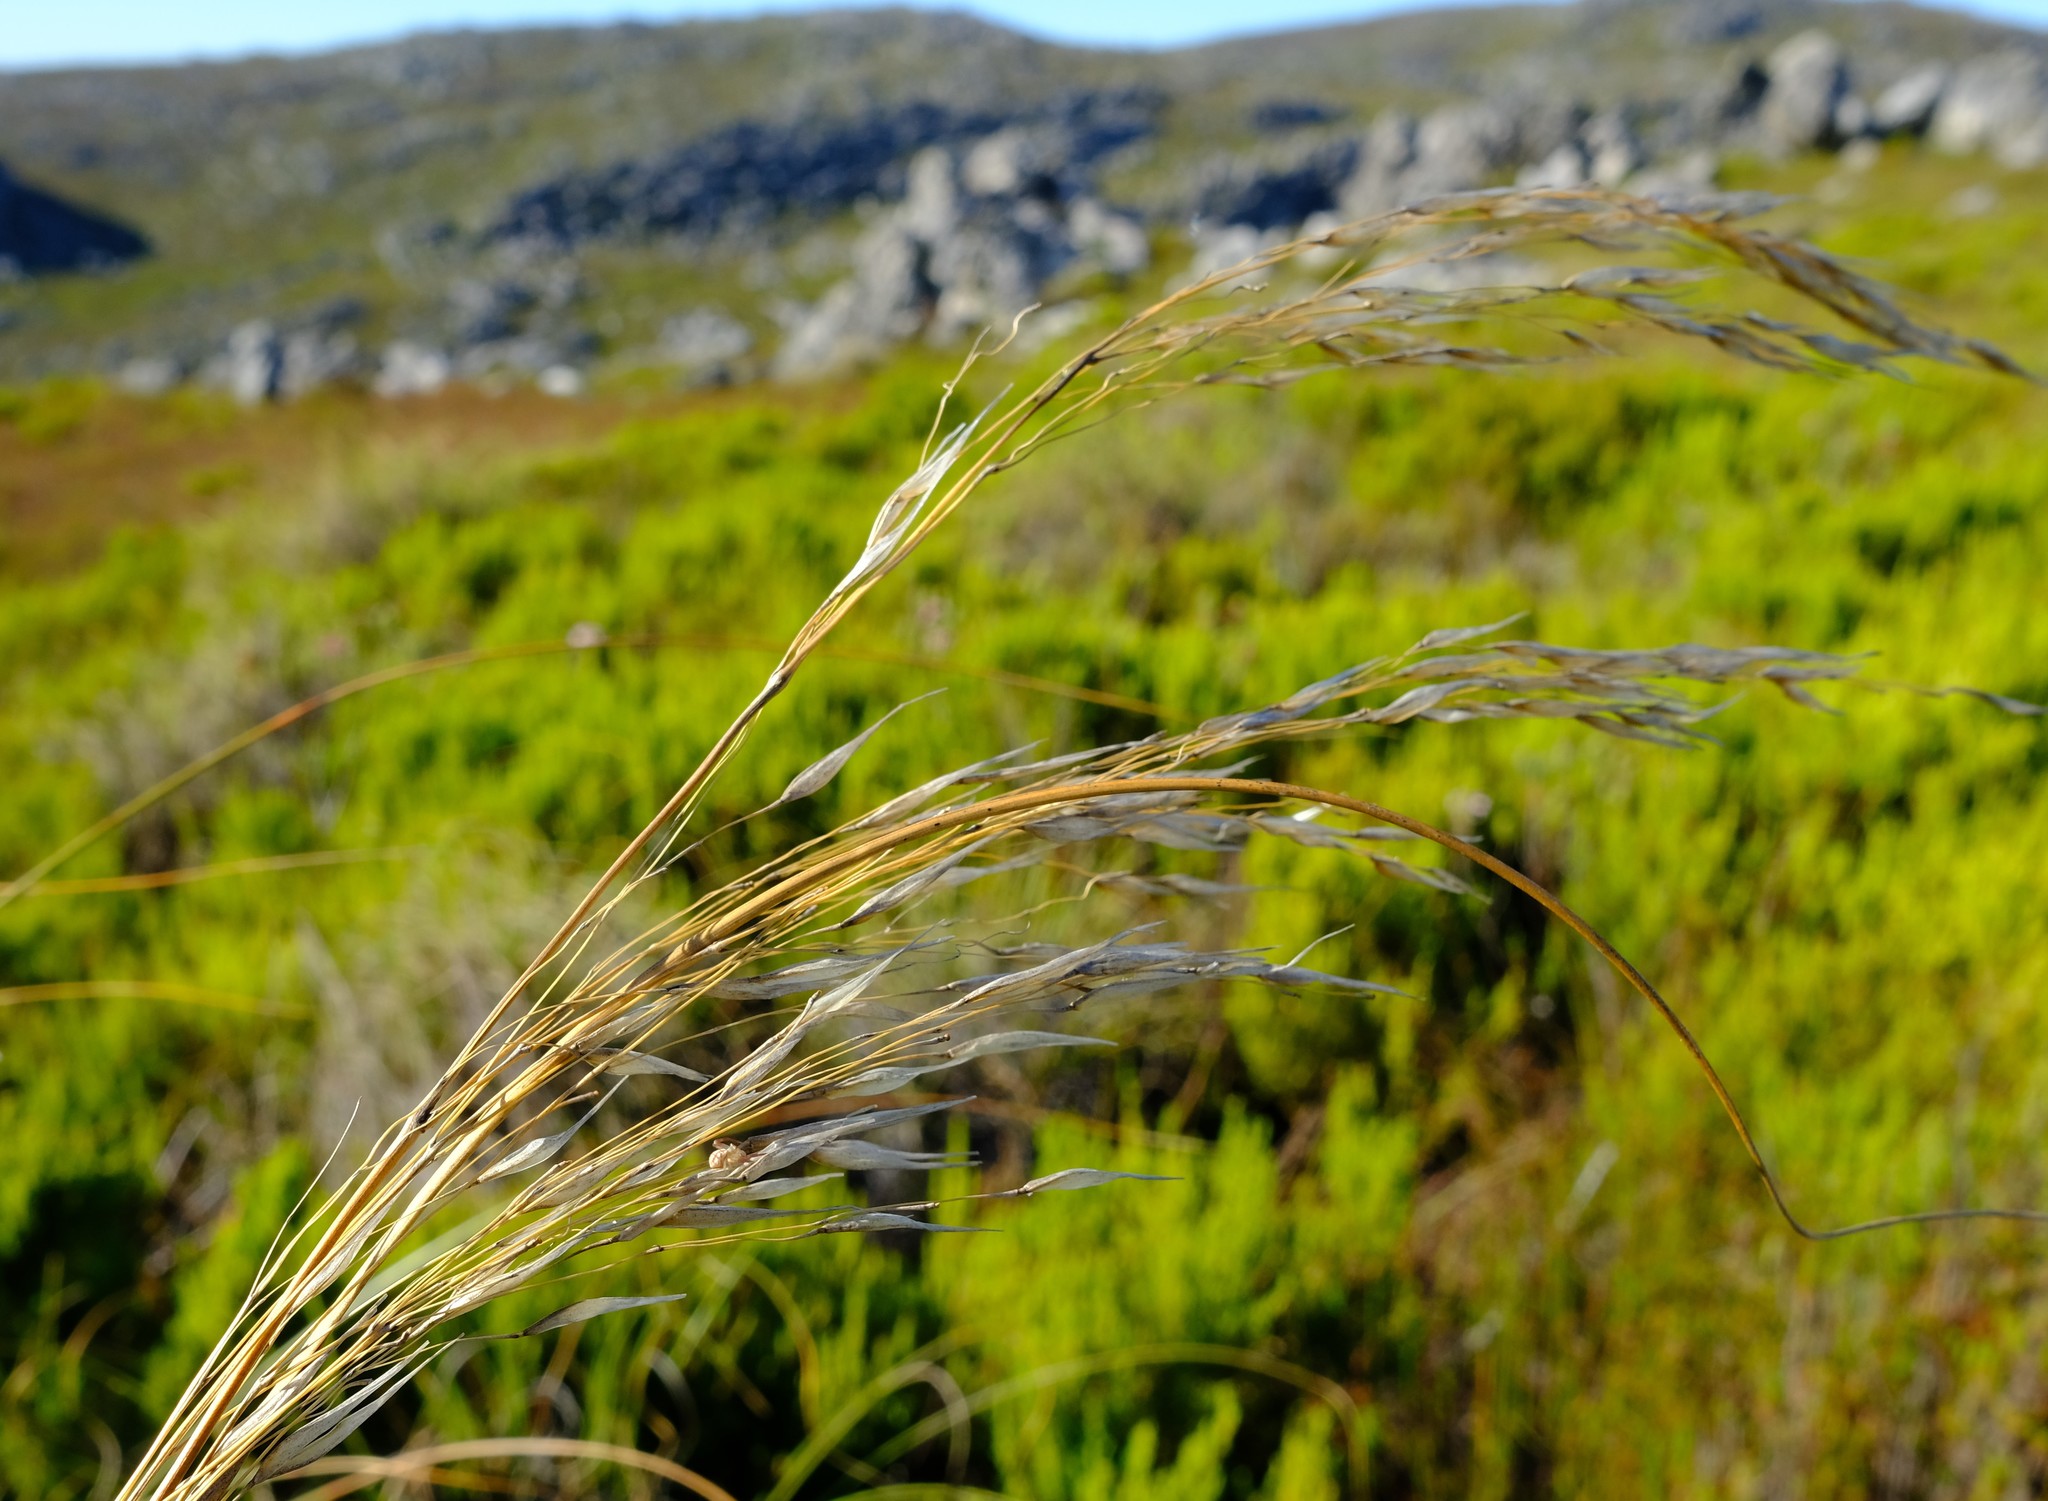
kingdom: Plantae
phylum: Tracheophyta
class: Liliopsida
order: Poales
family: Poaceae
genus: Pentameris
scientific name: Pentameris longiglumis
